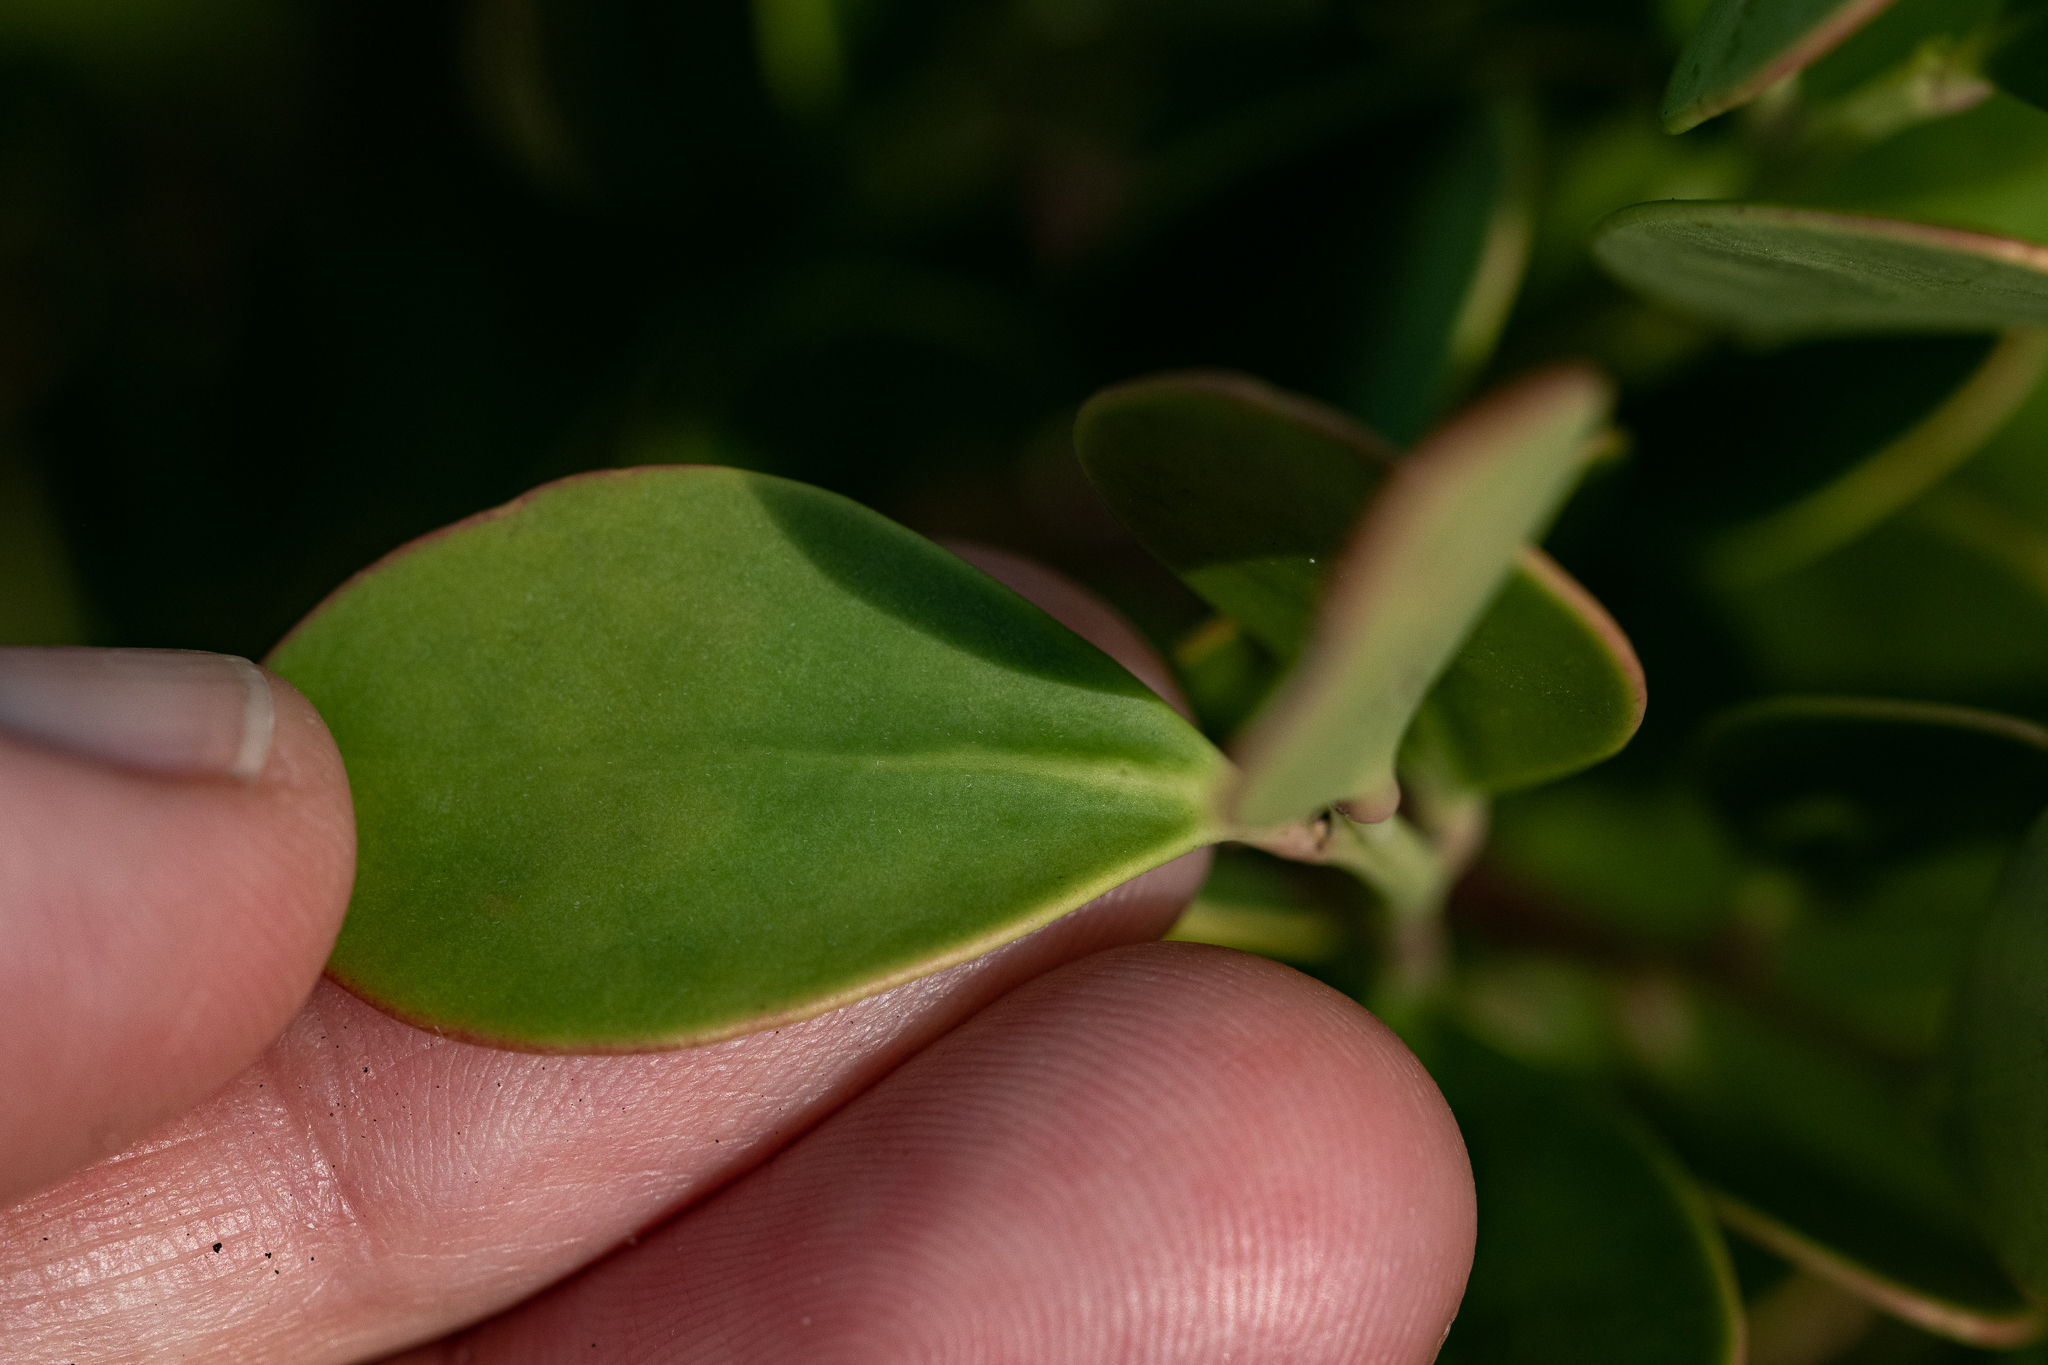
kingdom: Plantae
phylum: Tracheophyta
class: Magnoliopsida
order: Celastrales
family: Celastraceae
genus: Pterocelastrus
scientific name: Pterocelastrus tricuspidatus
